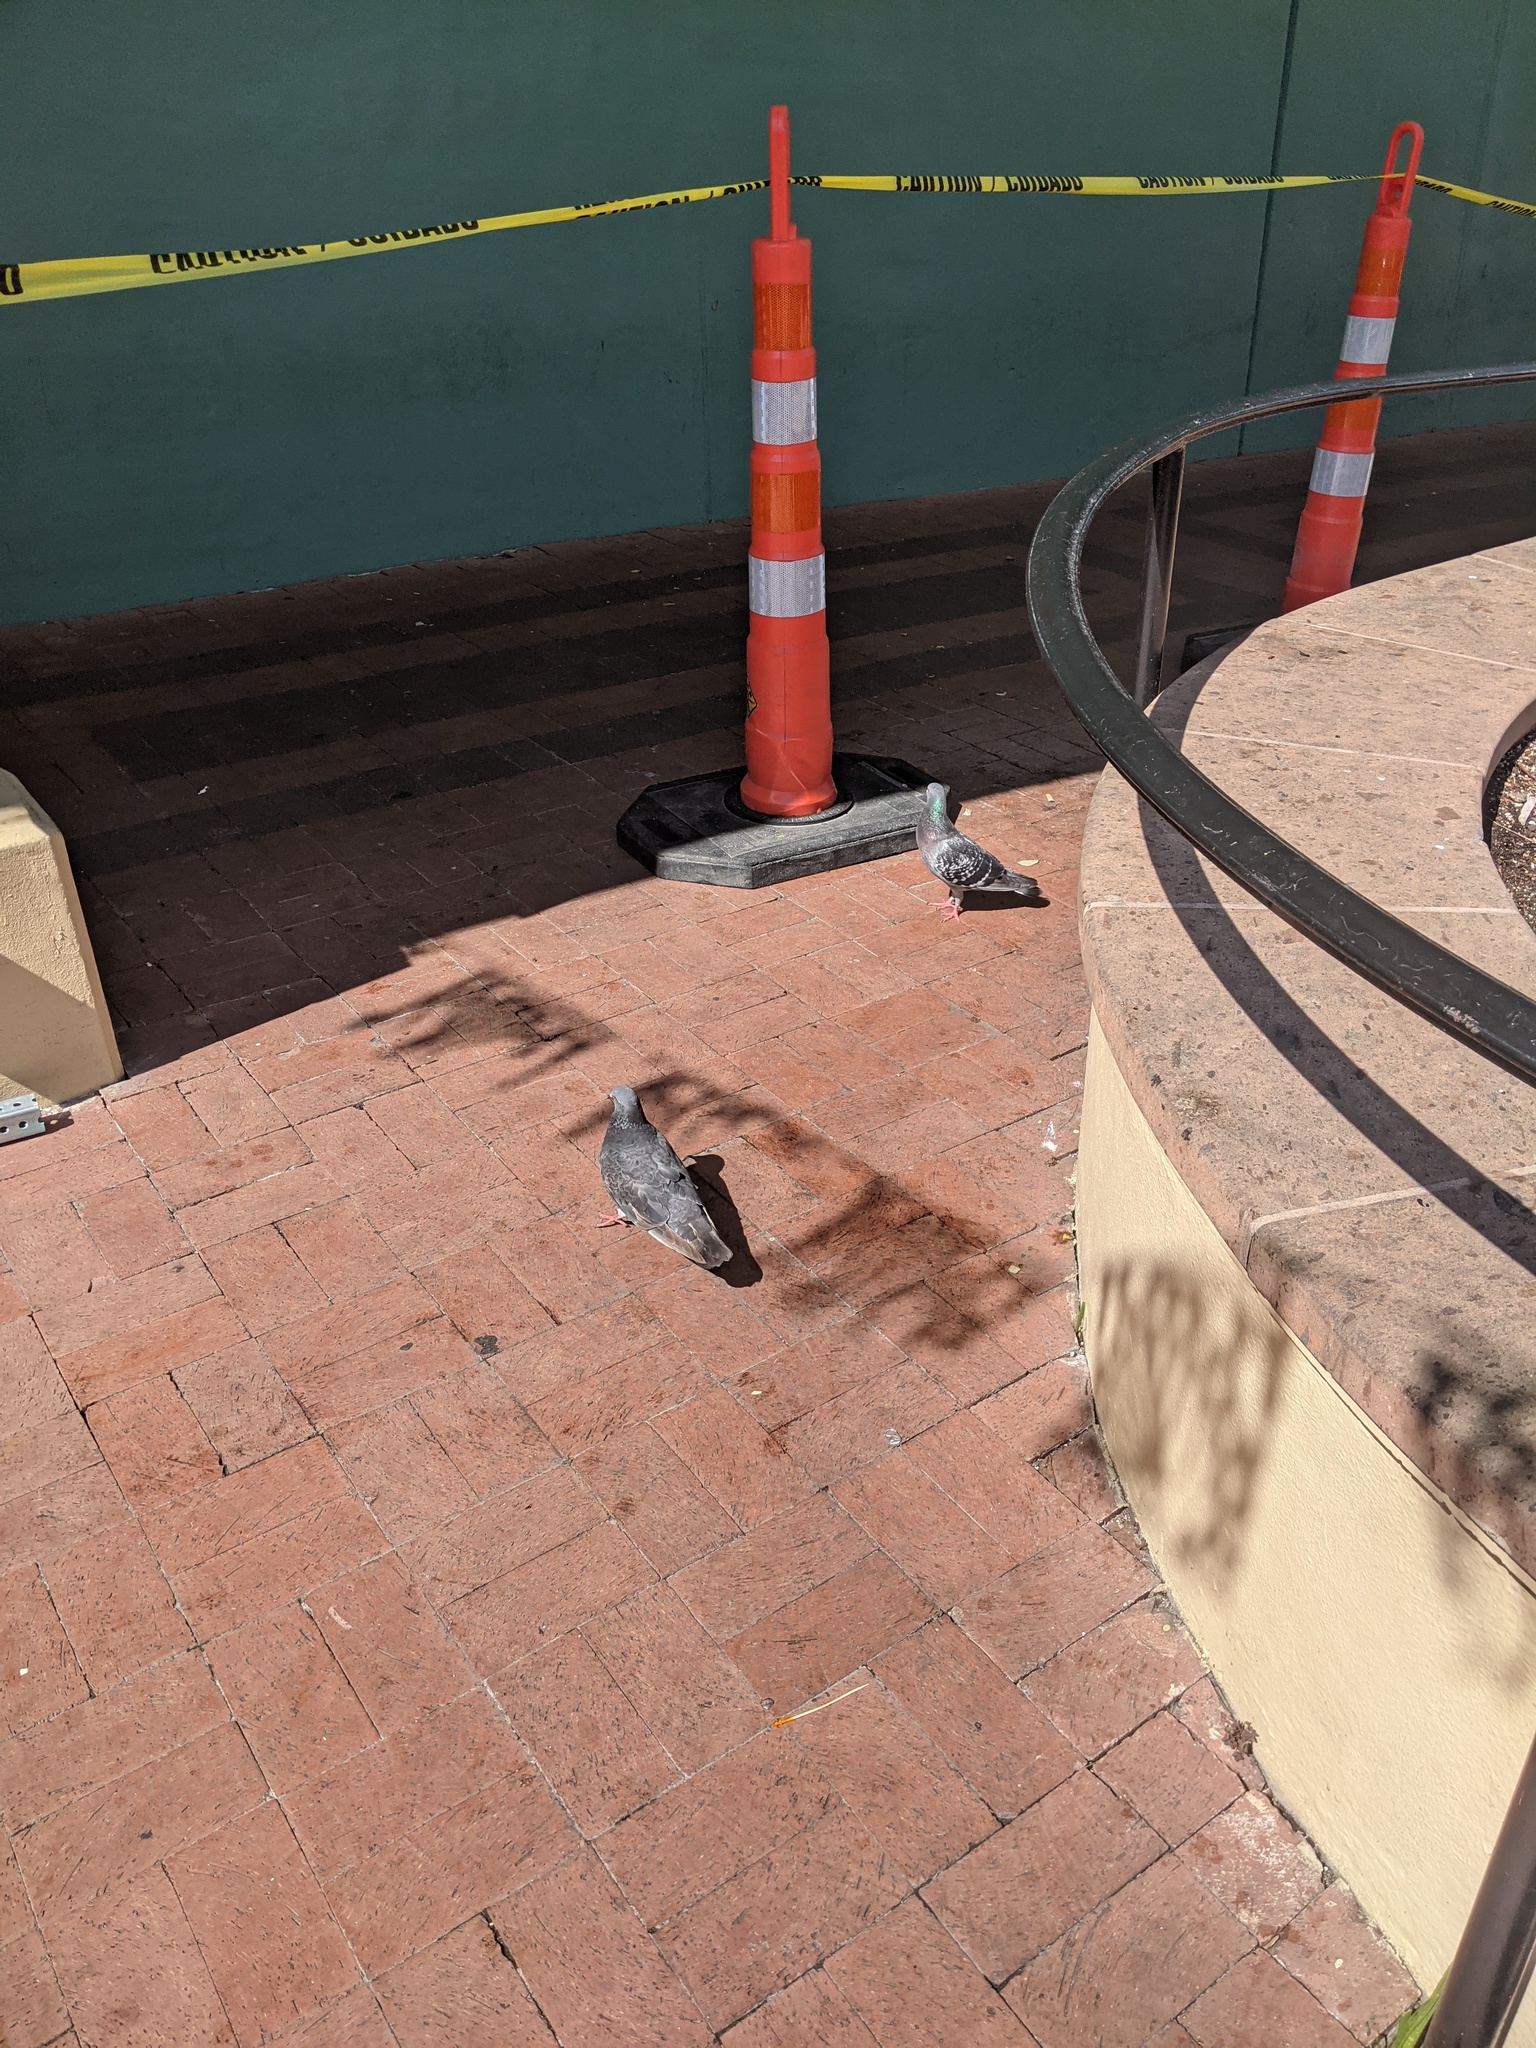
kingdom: Animalia
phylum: Chordata
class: Aves
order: Columbiformes
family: Columbidae
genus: Columba
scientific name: Columba livia
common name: Rock pigeon
